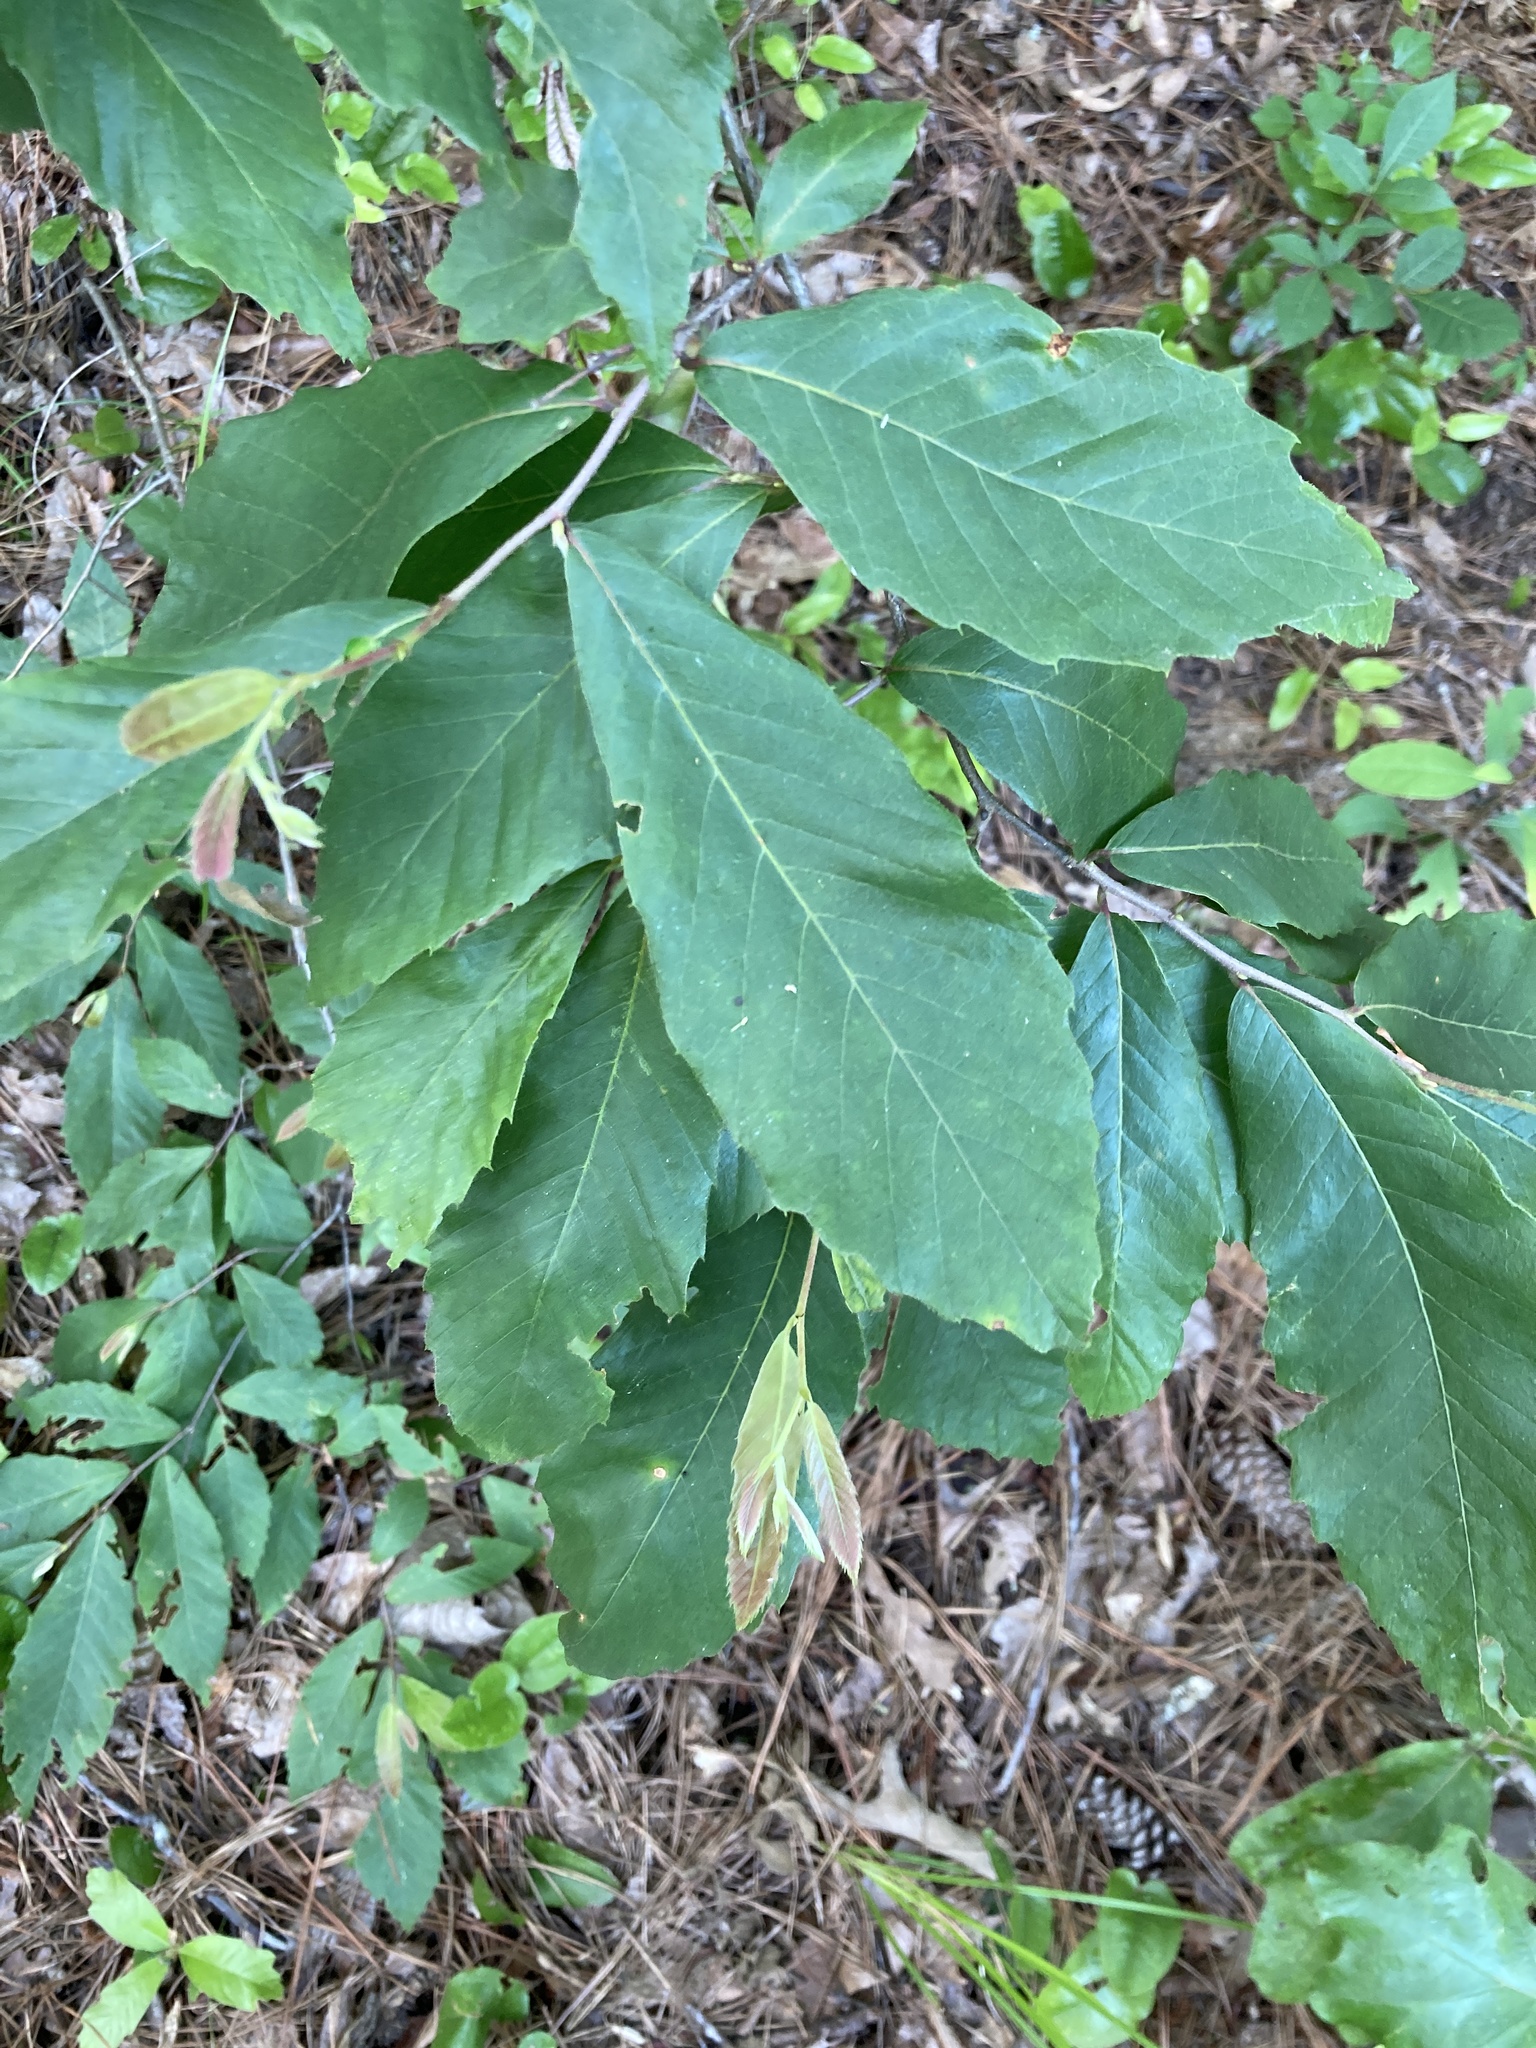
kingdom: Plantae
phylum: Tracheophyta
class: Magnoliopsida
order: Fagales
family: Fagaceae
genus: Castanea
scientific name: Castanea pumila
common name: Chinkapin
